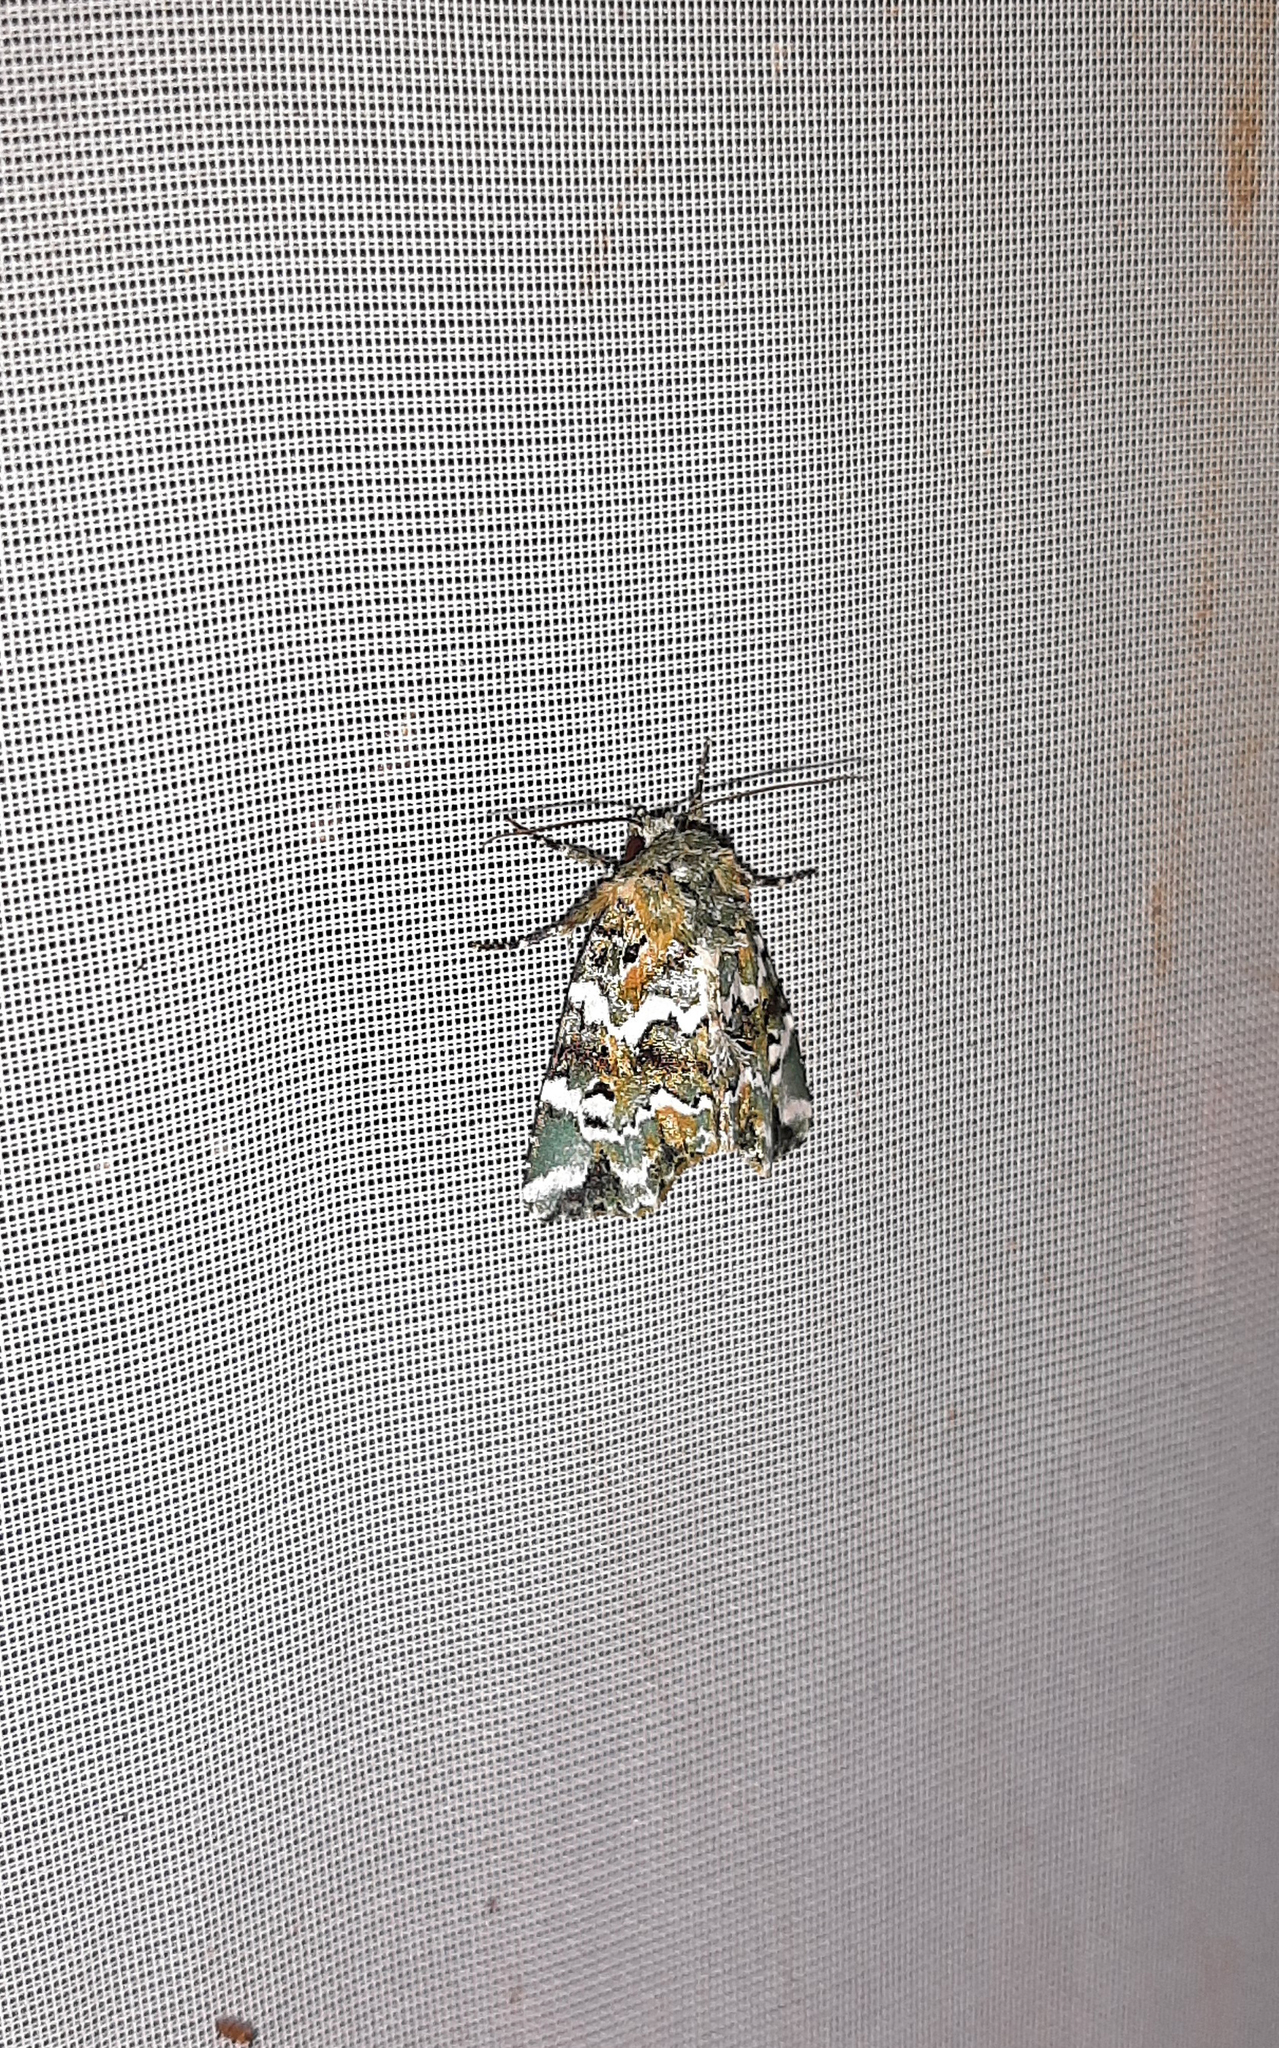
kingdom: Animalia
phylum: Arthropoda
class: Insecta
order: Lepidoptera
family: Noctuidae
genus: Chytonix
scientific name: Chytonix elegans
